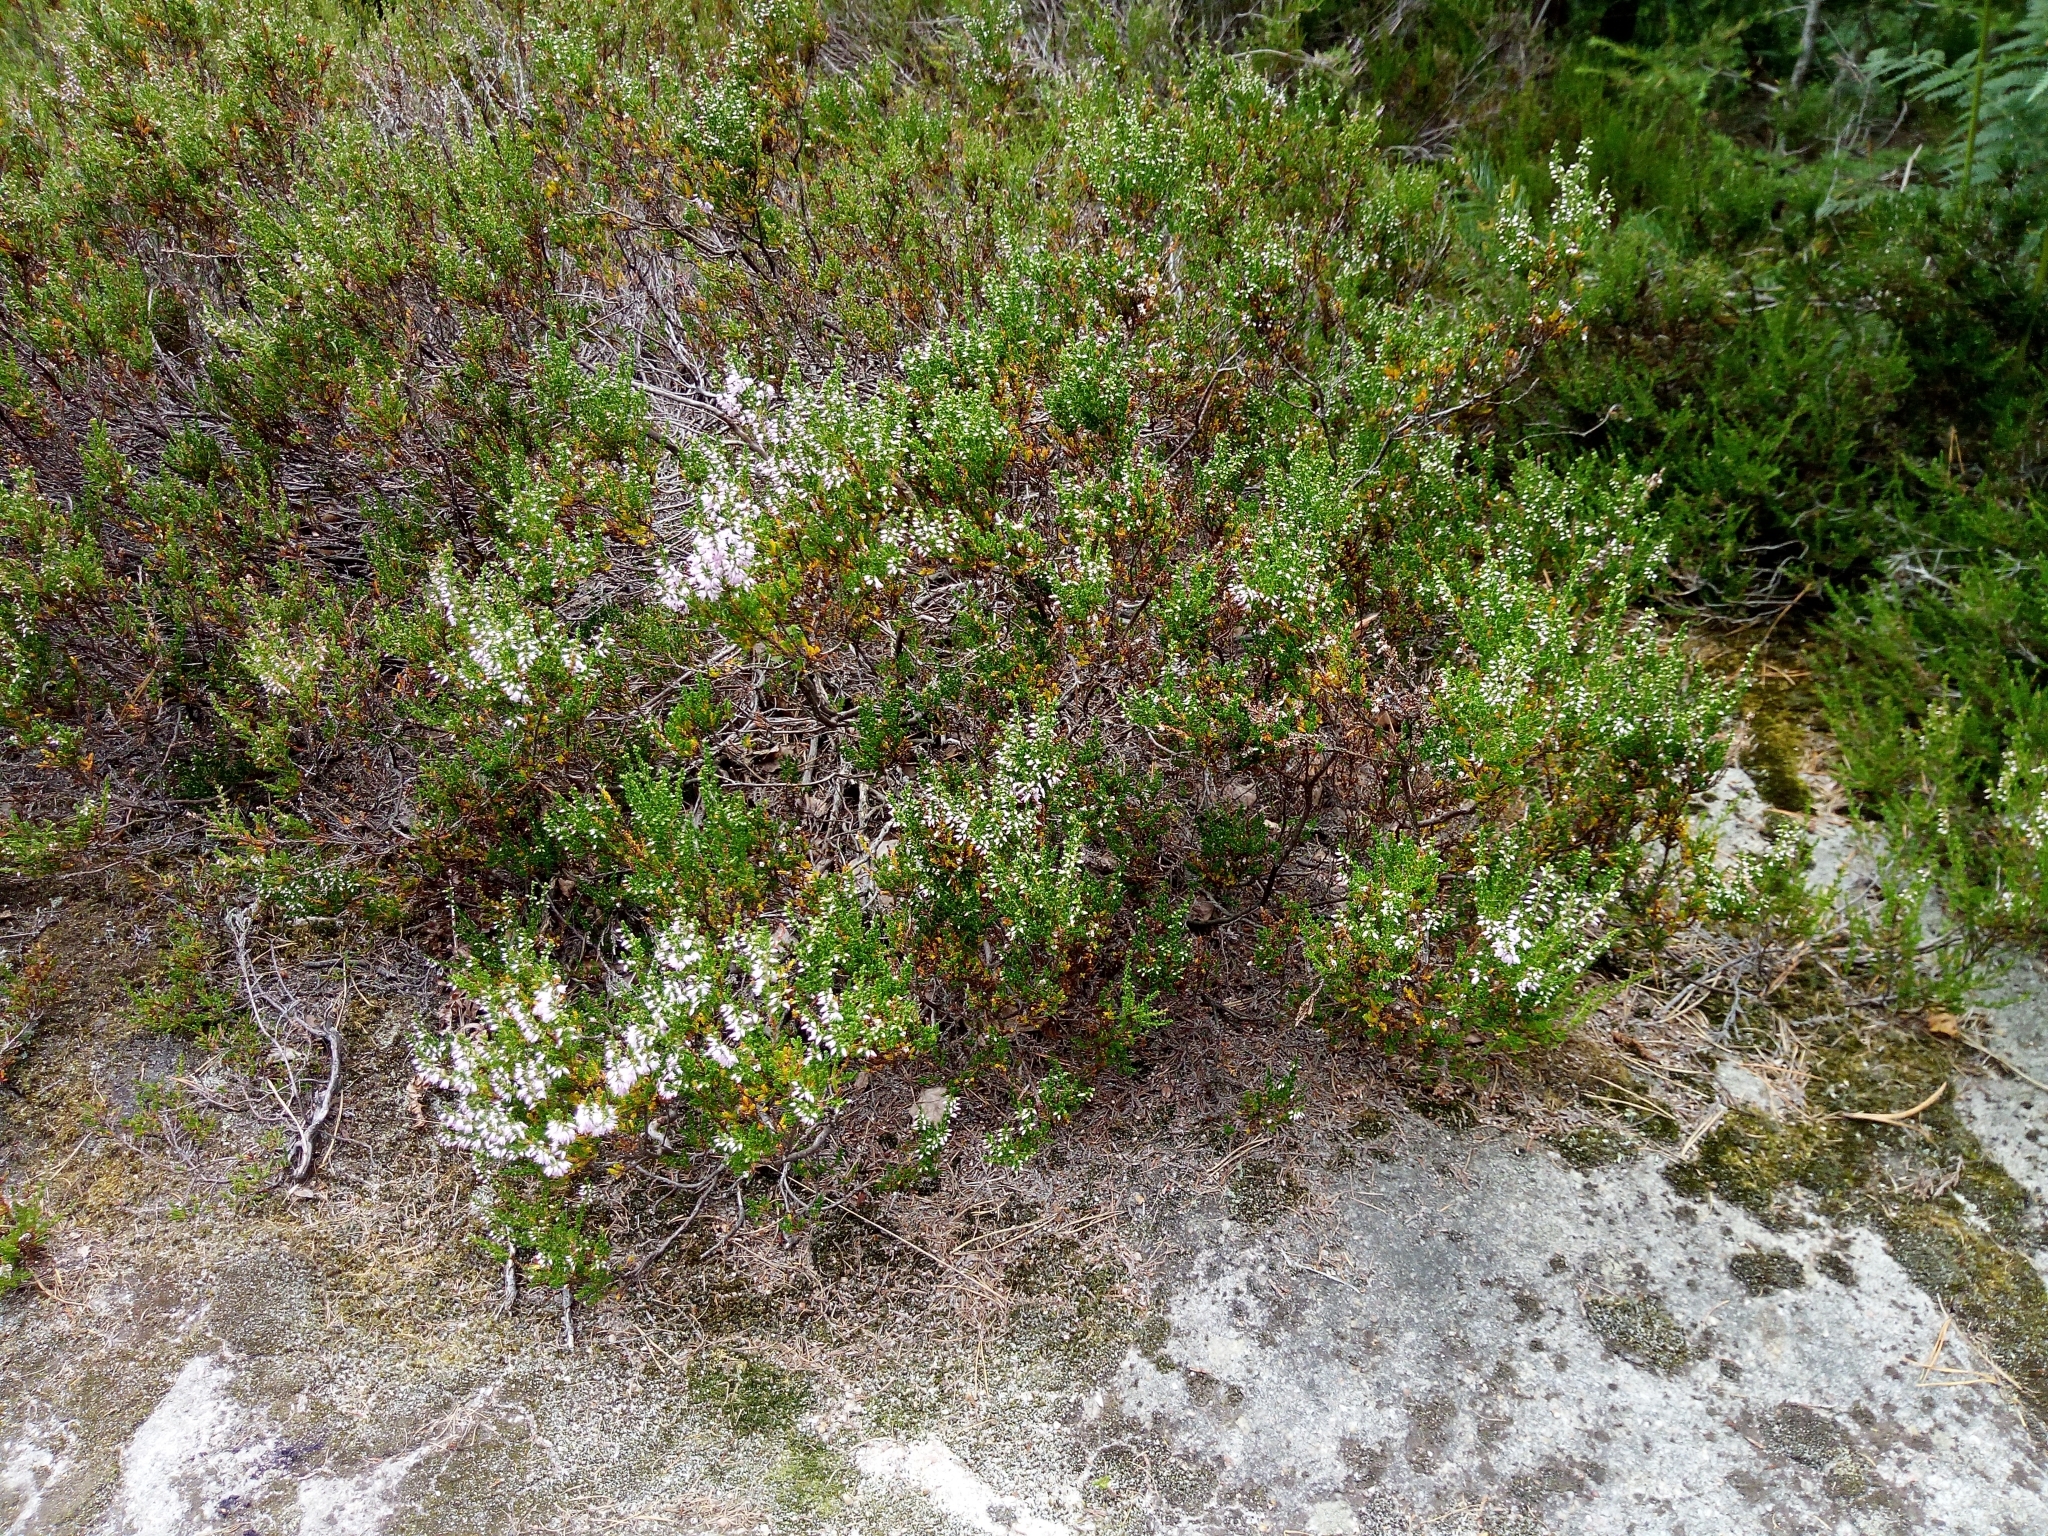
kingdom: Plantae
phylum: Tracheophyta
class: Magnoliopsida
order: Ericales
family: Ericaceae
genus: Calluna
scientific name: Calluna vulgaris
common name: Heather
